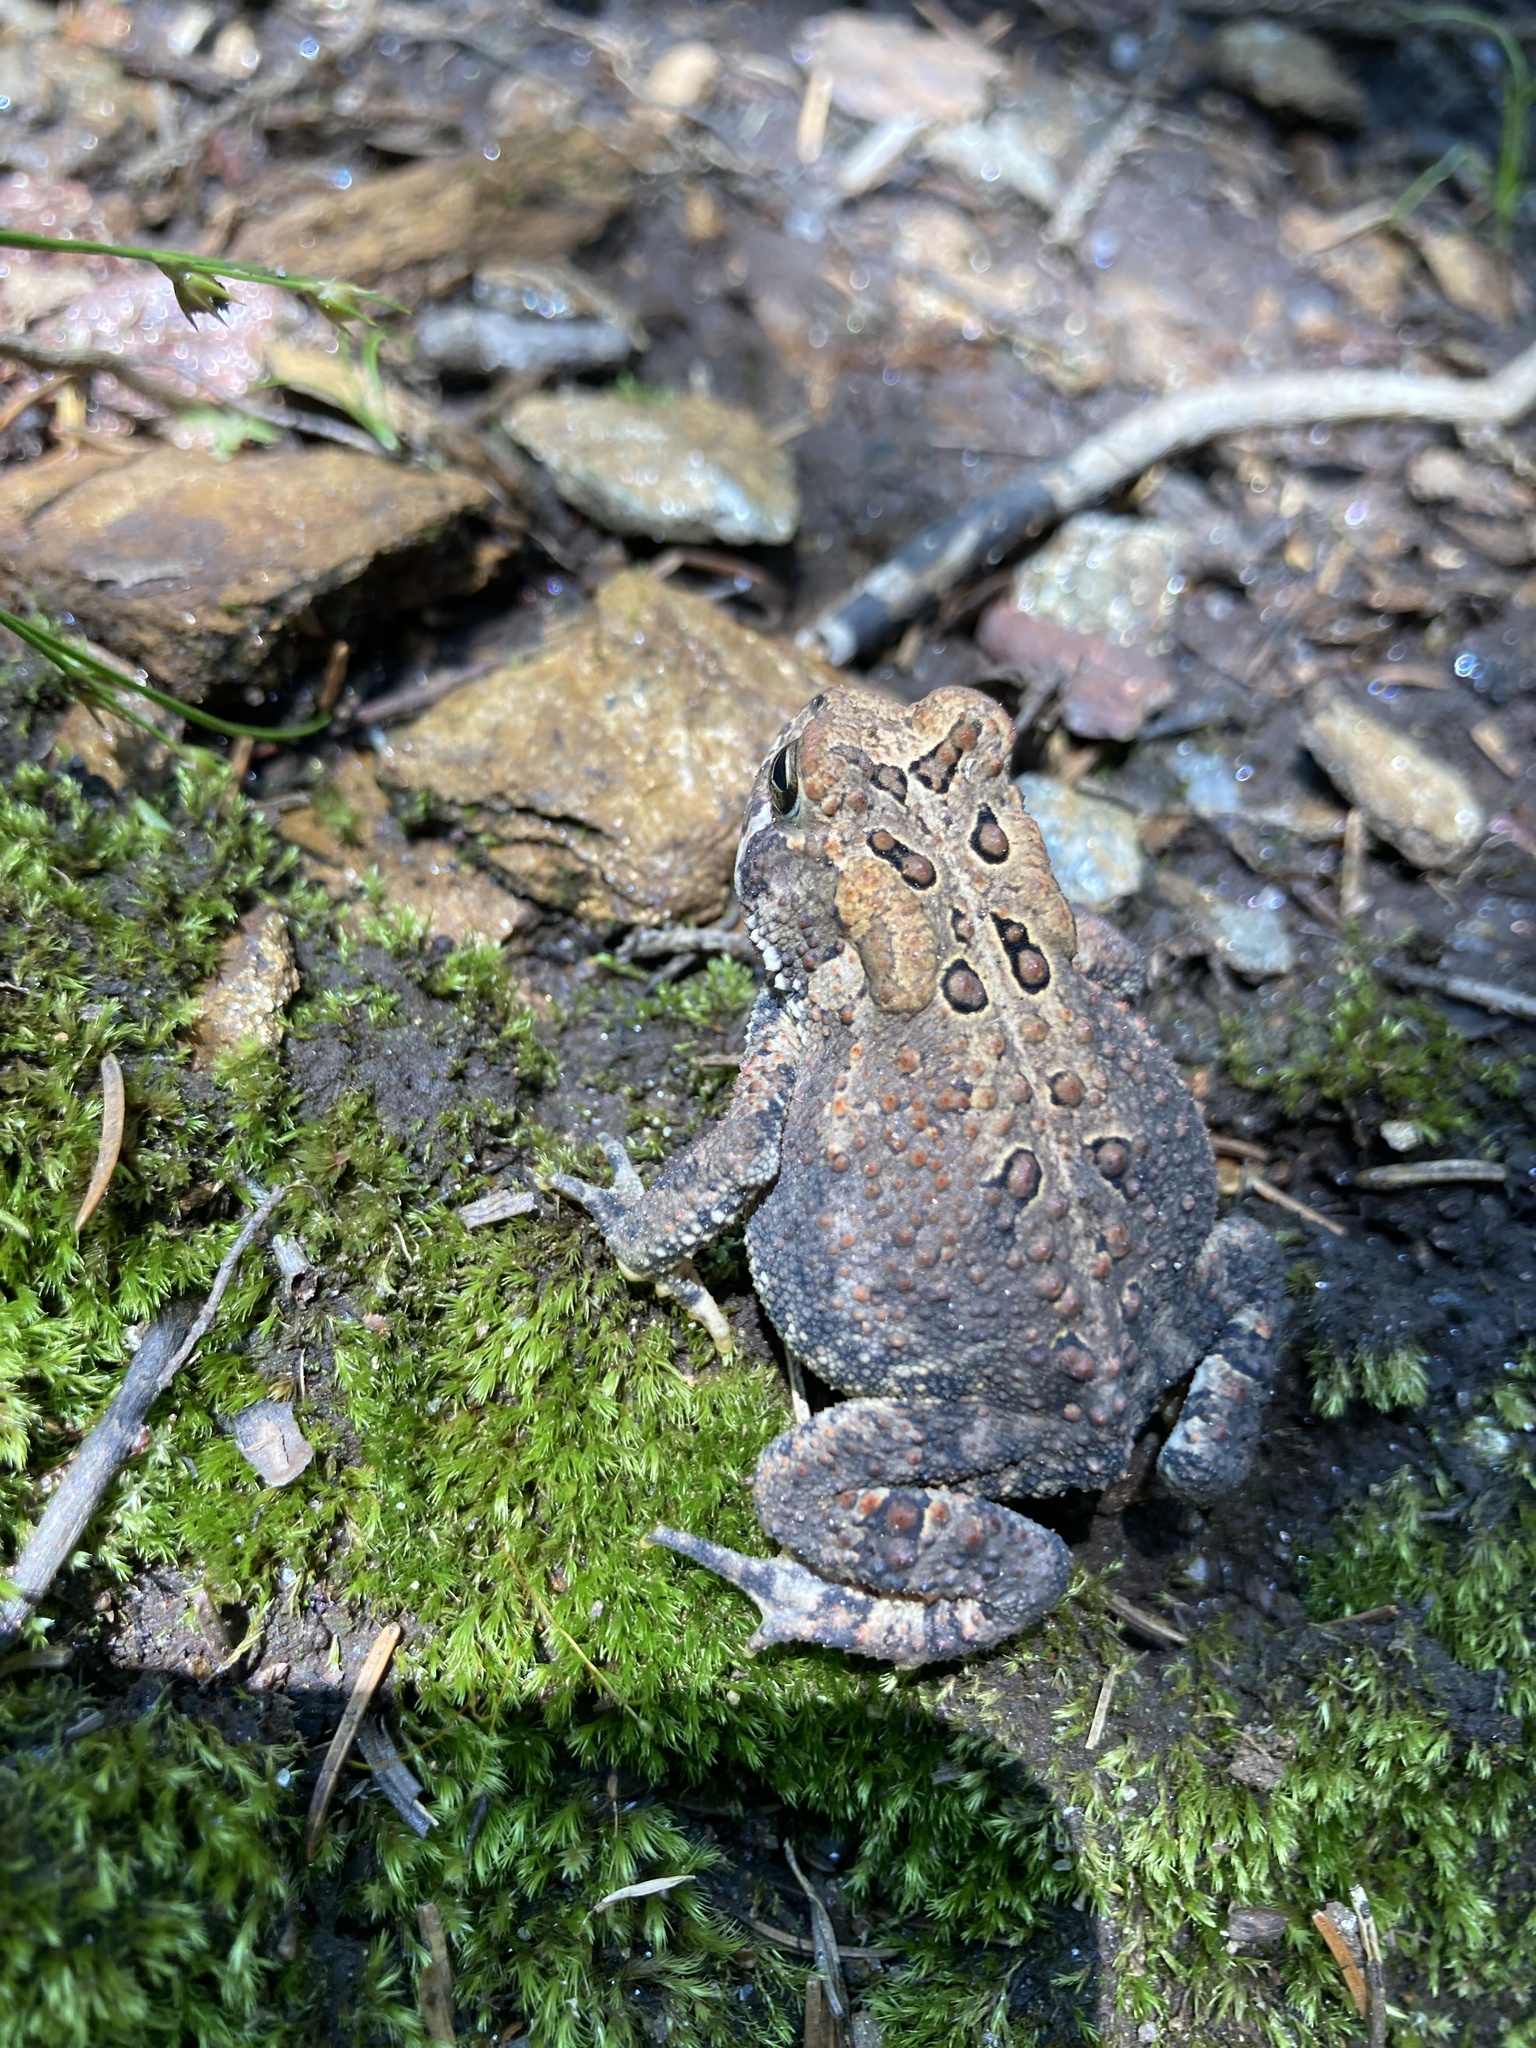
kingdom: Animalia
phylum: Chordata
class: Amphibia
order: Anura
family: Bufonidae
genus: Anaxyrus
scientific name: Anaxyrus americanus
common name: American toad
